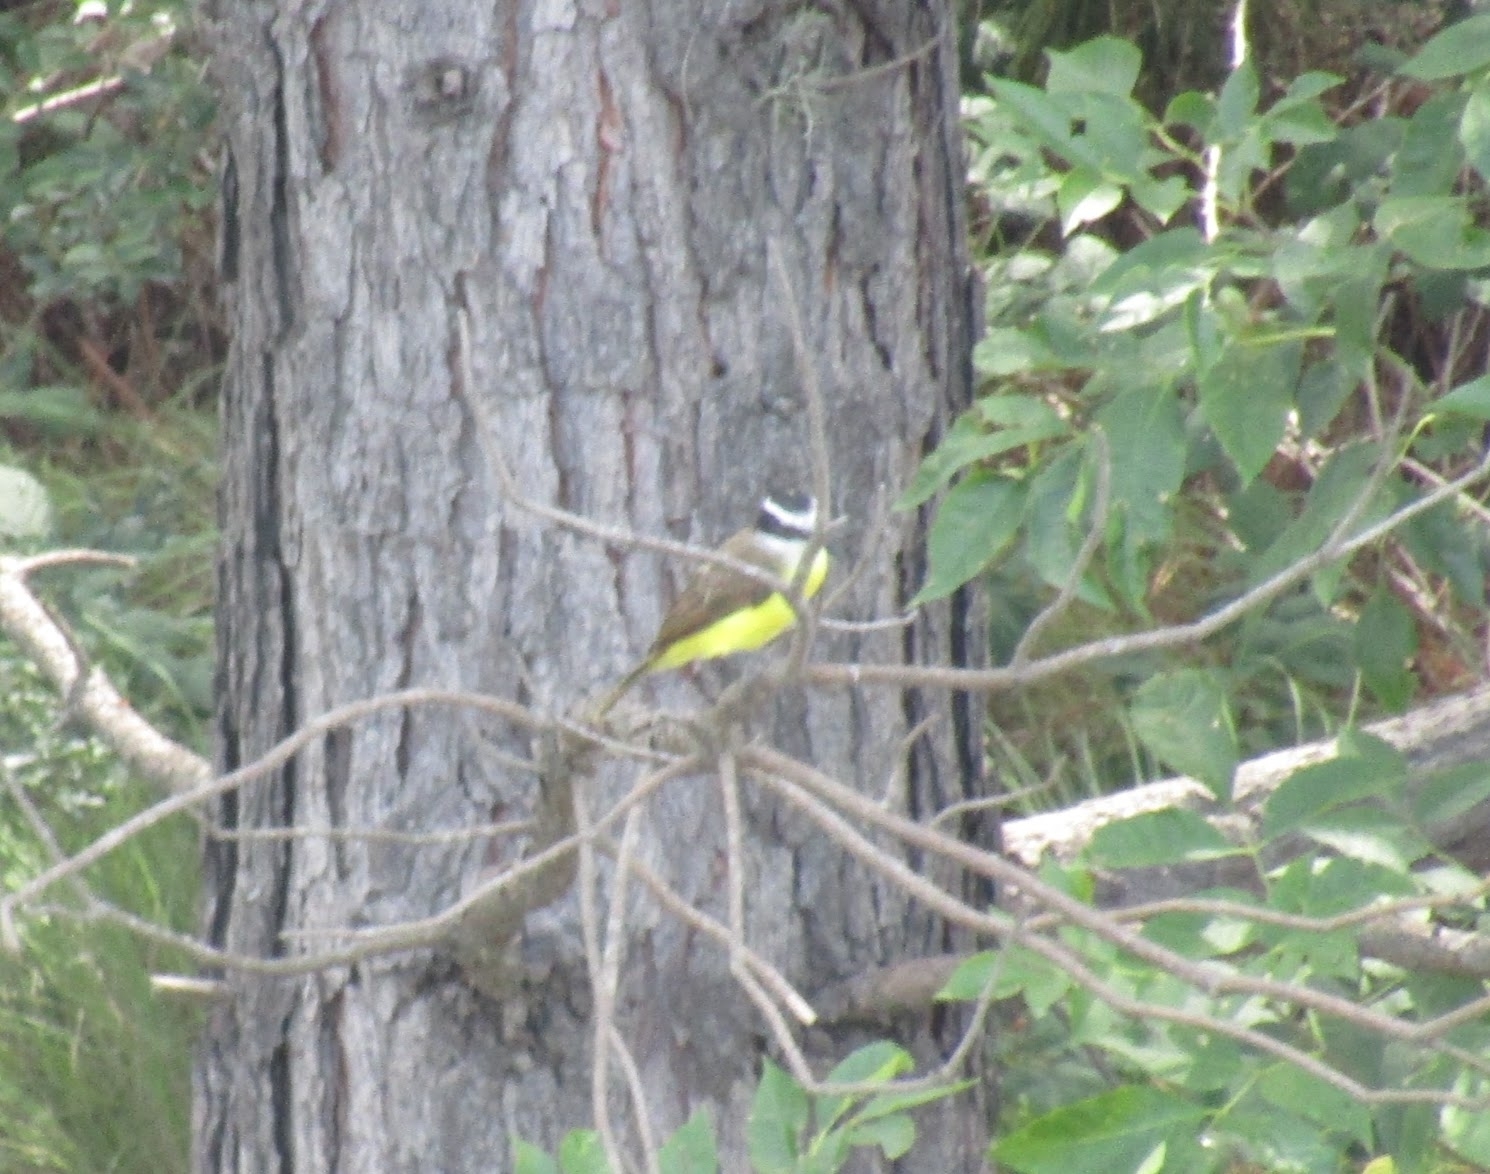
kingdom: Animalia
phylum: Chordata
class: Aves
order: Passeriformes
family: Tyrannidae
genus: Pitangus
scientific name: Pitangus sulphuratus
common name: Great kiskadee
